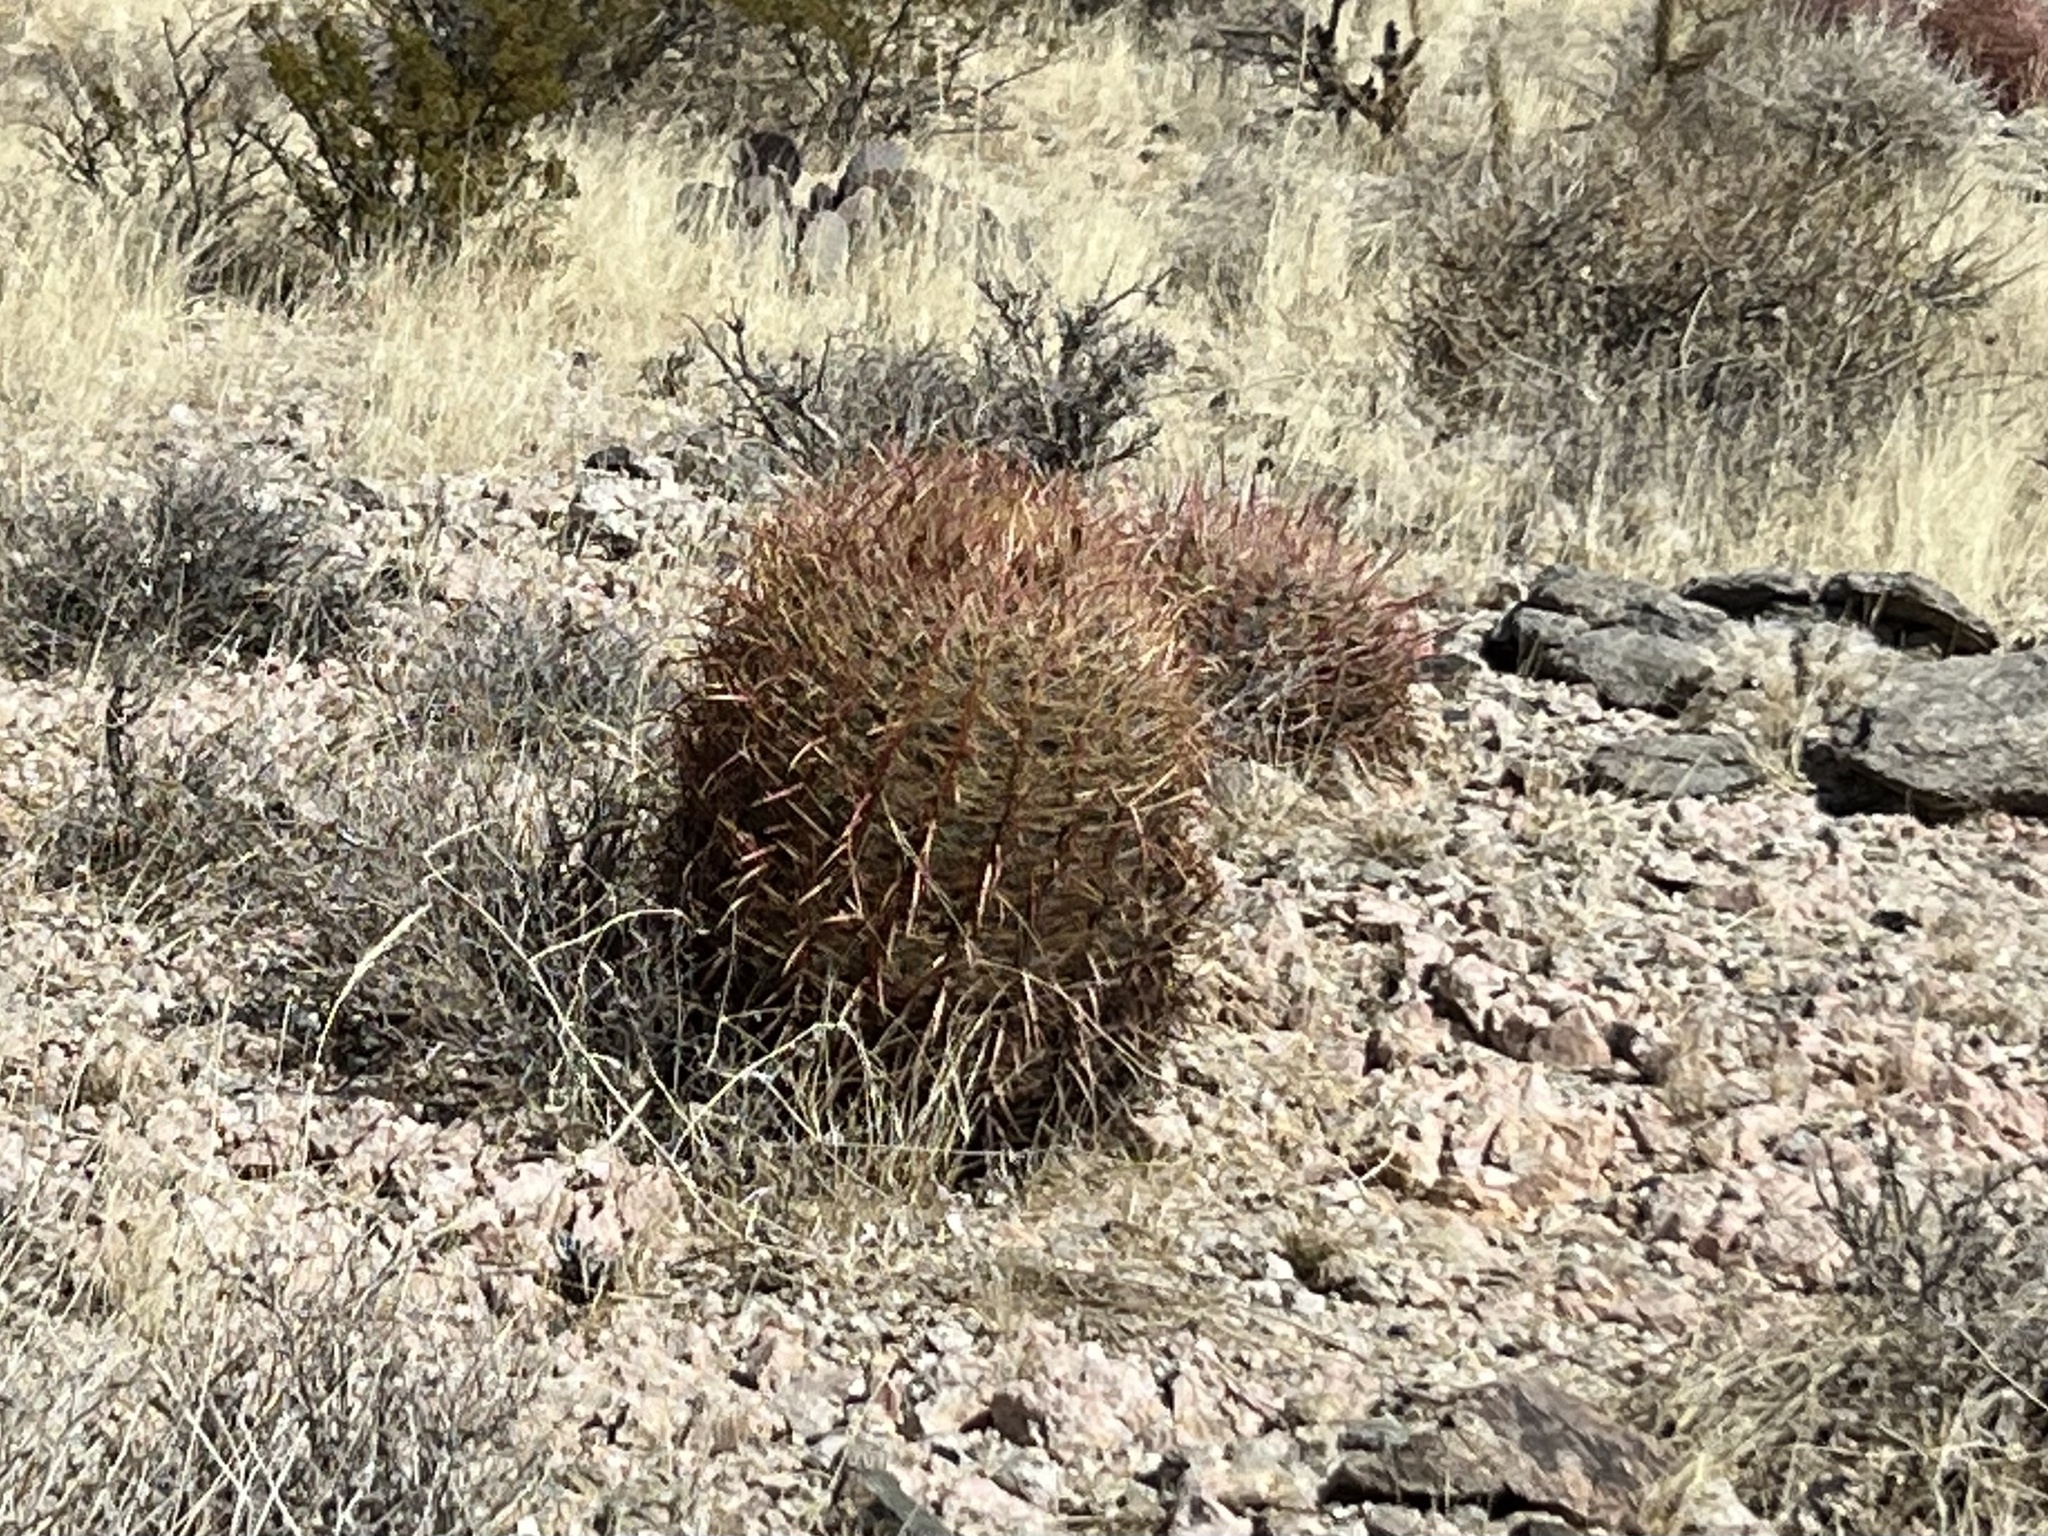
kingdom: Plantae
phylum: Tracheophyta
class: Magnoliopsida
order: Caryophyllales
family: Cactaceae
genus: Ferocactus
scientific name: Ferocactus cylindraceus
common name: California barrel cactus
